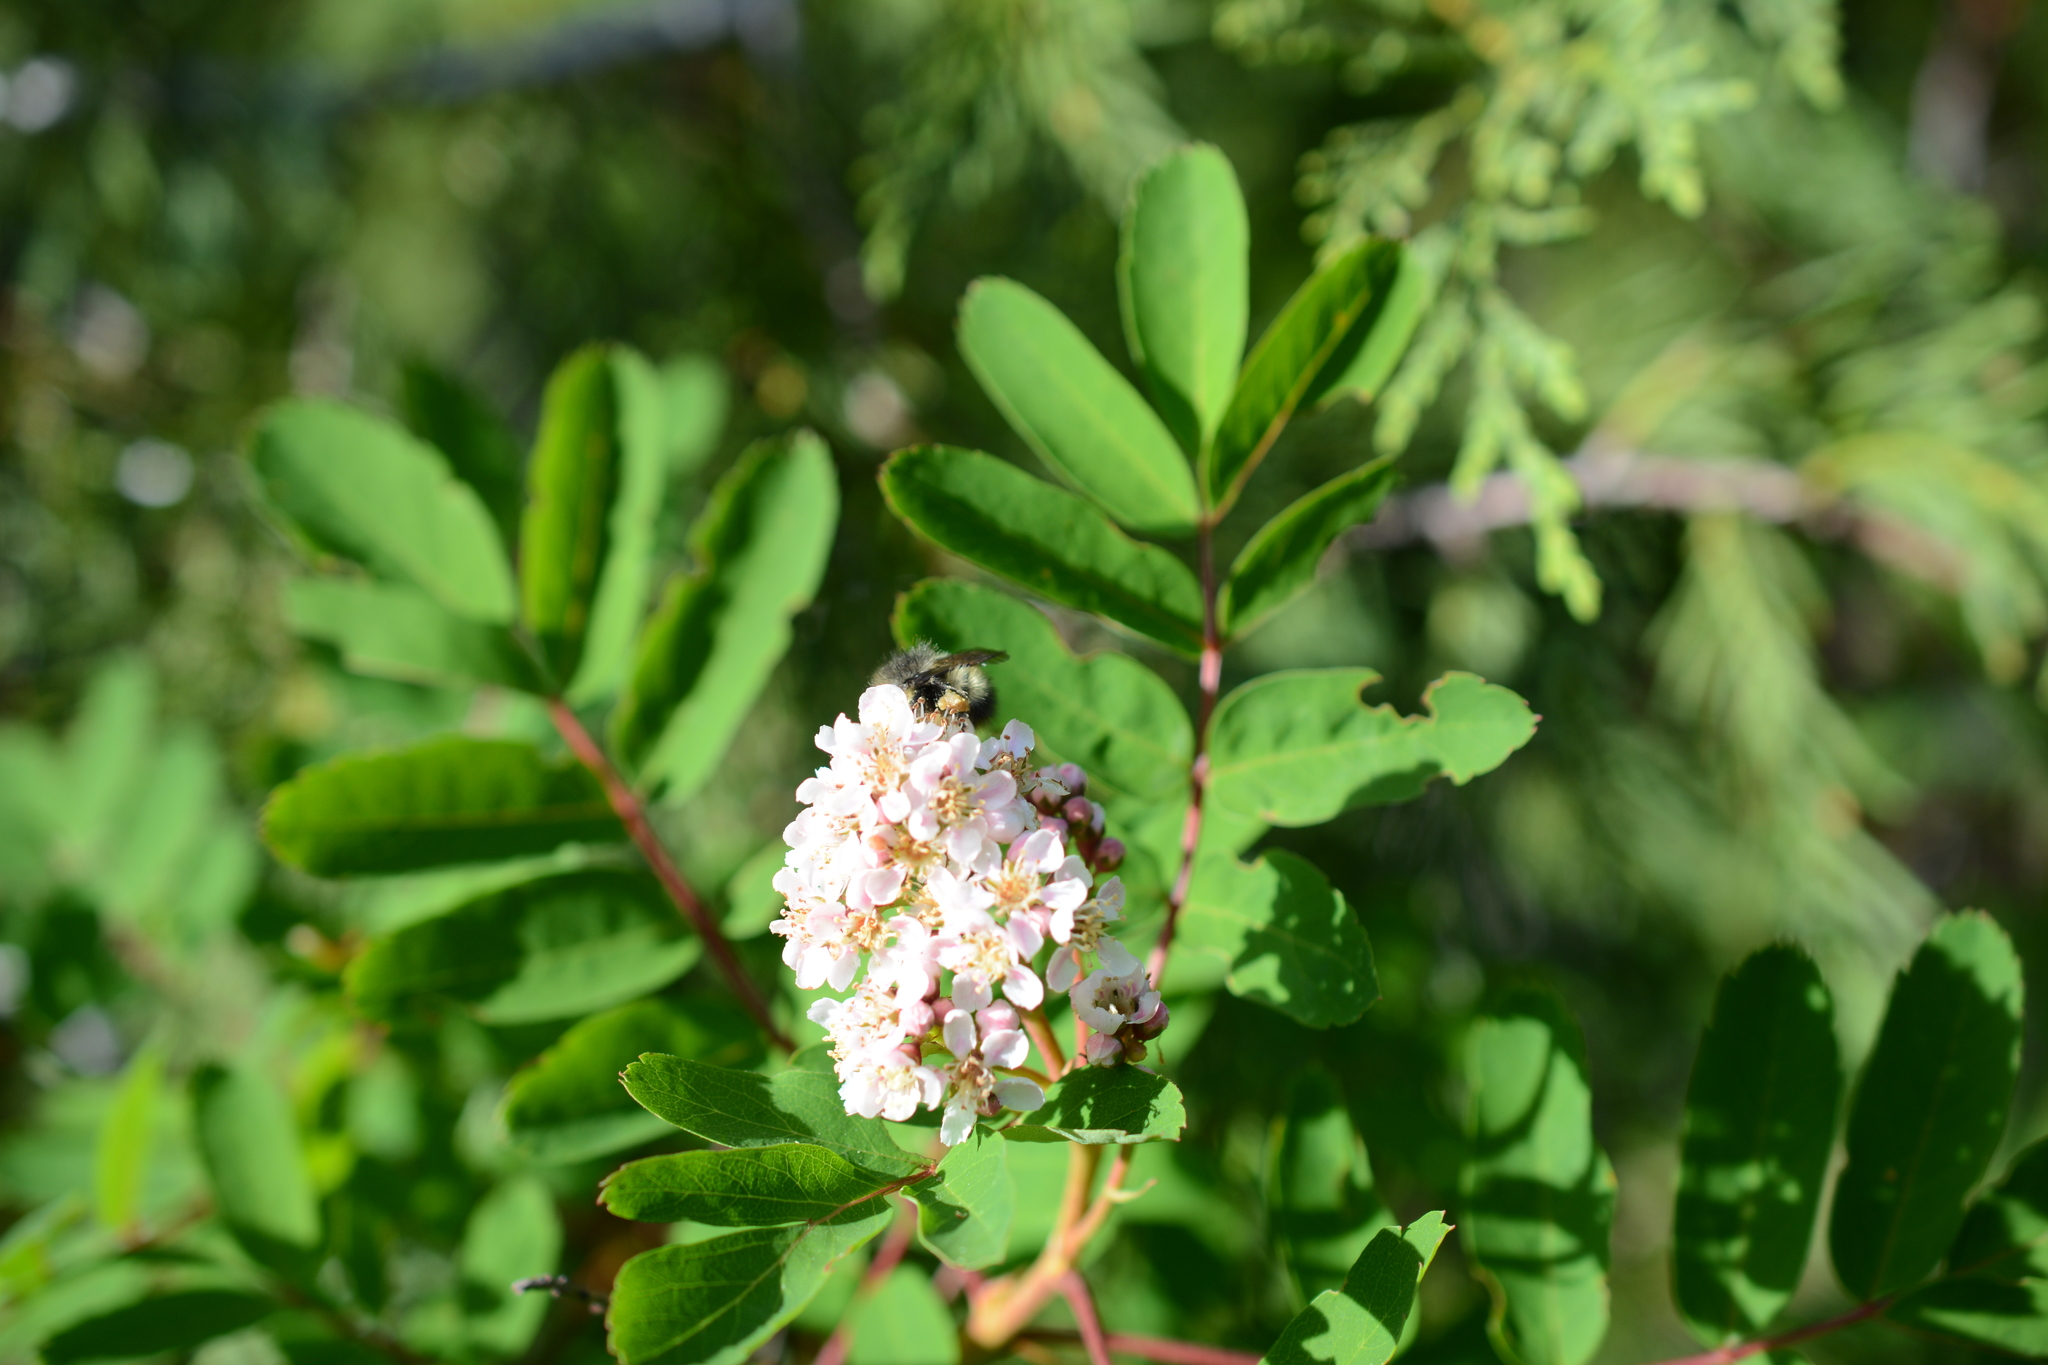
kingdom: Plantae
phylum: Tracheophyta
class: Magnoliopsida
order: Rosales
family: Rosaceae
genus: Sorbus
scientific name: Sorbus sitchensis
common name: Sitka mountain-ash
